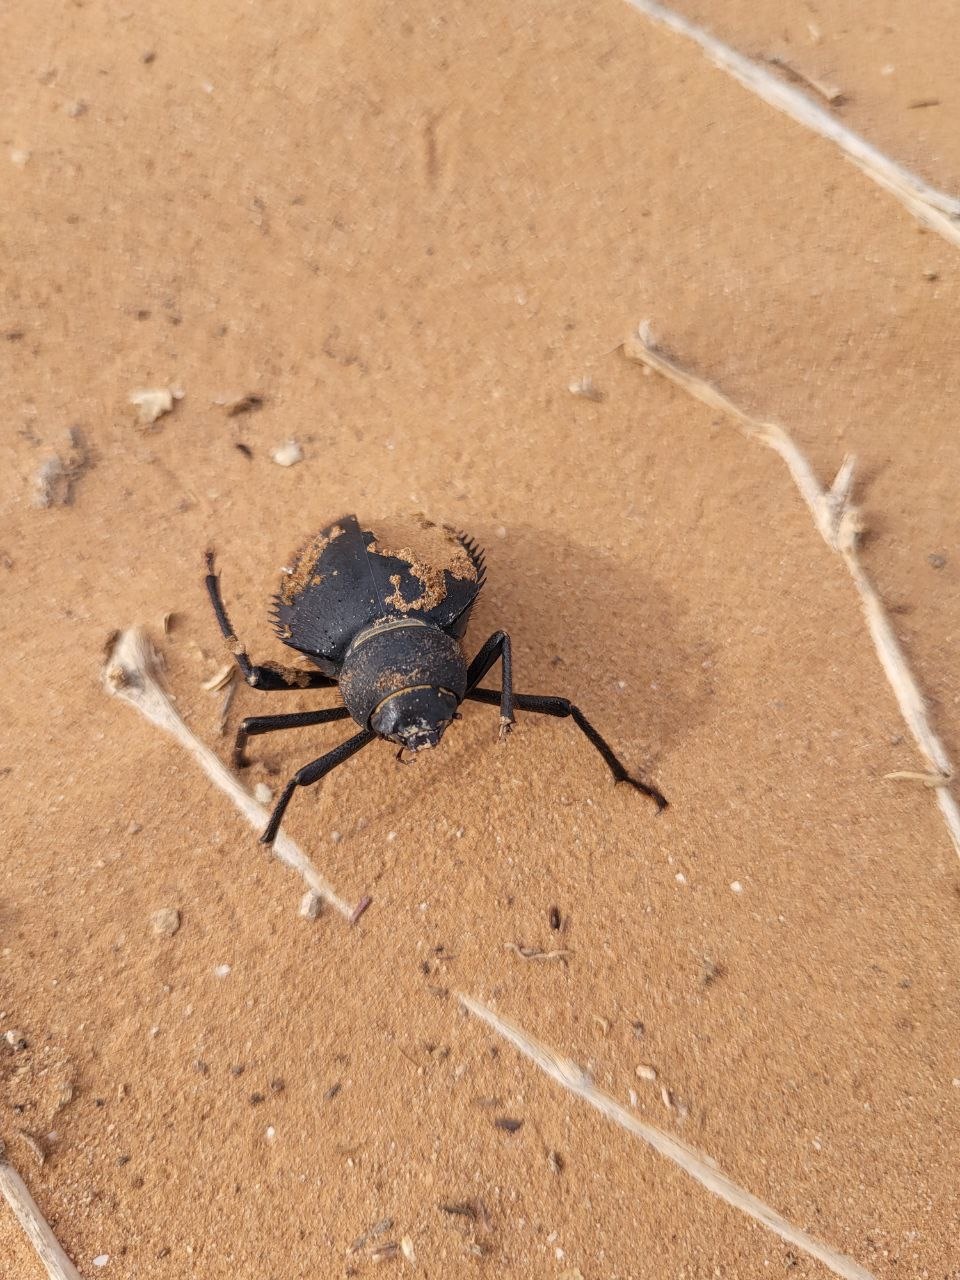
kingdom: Animalia
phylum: Arthropoda
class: Insecta
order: Coleoptera
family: Tenebrionidae
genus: Prionotheca
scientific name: Prionotheca coronata
